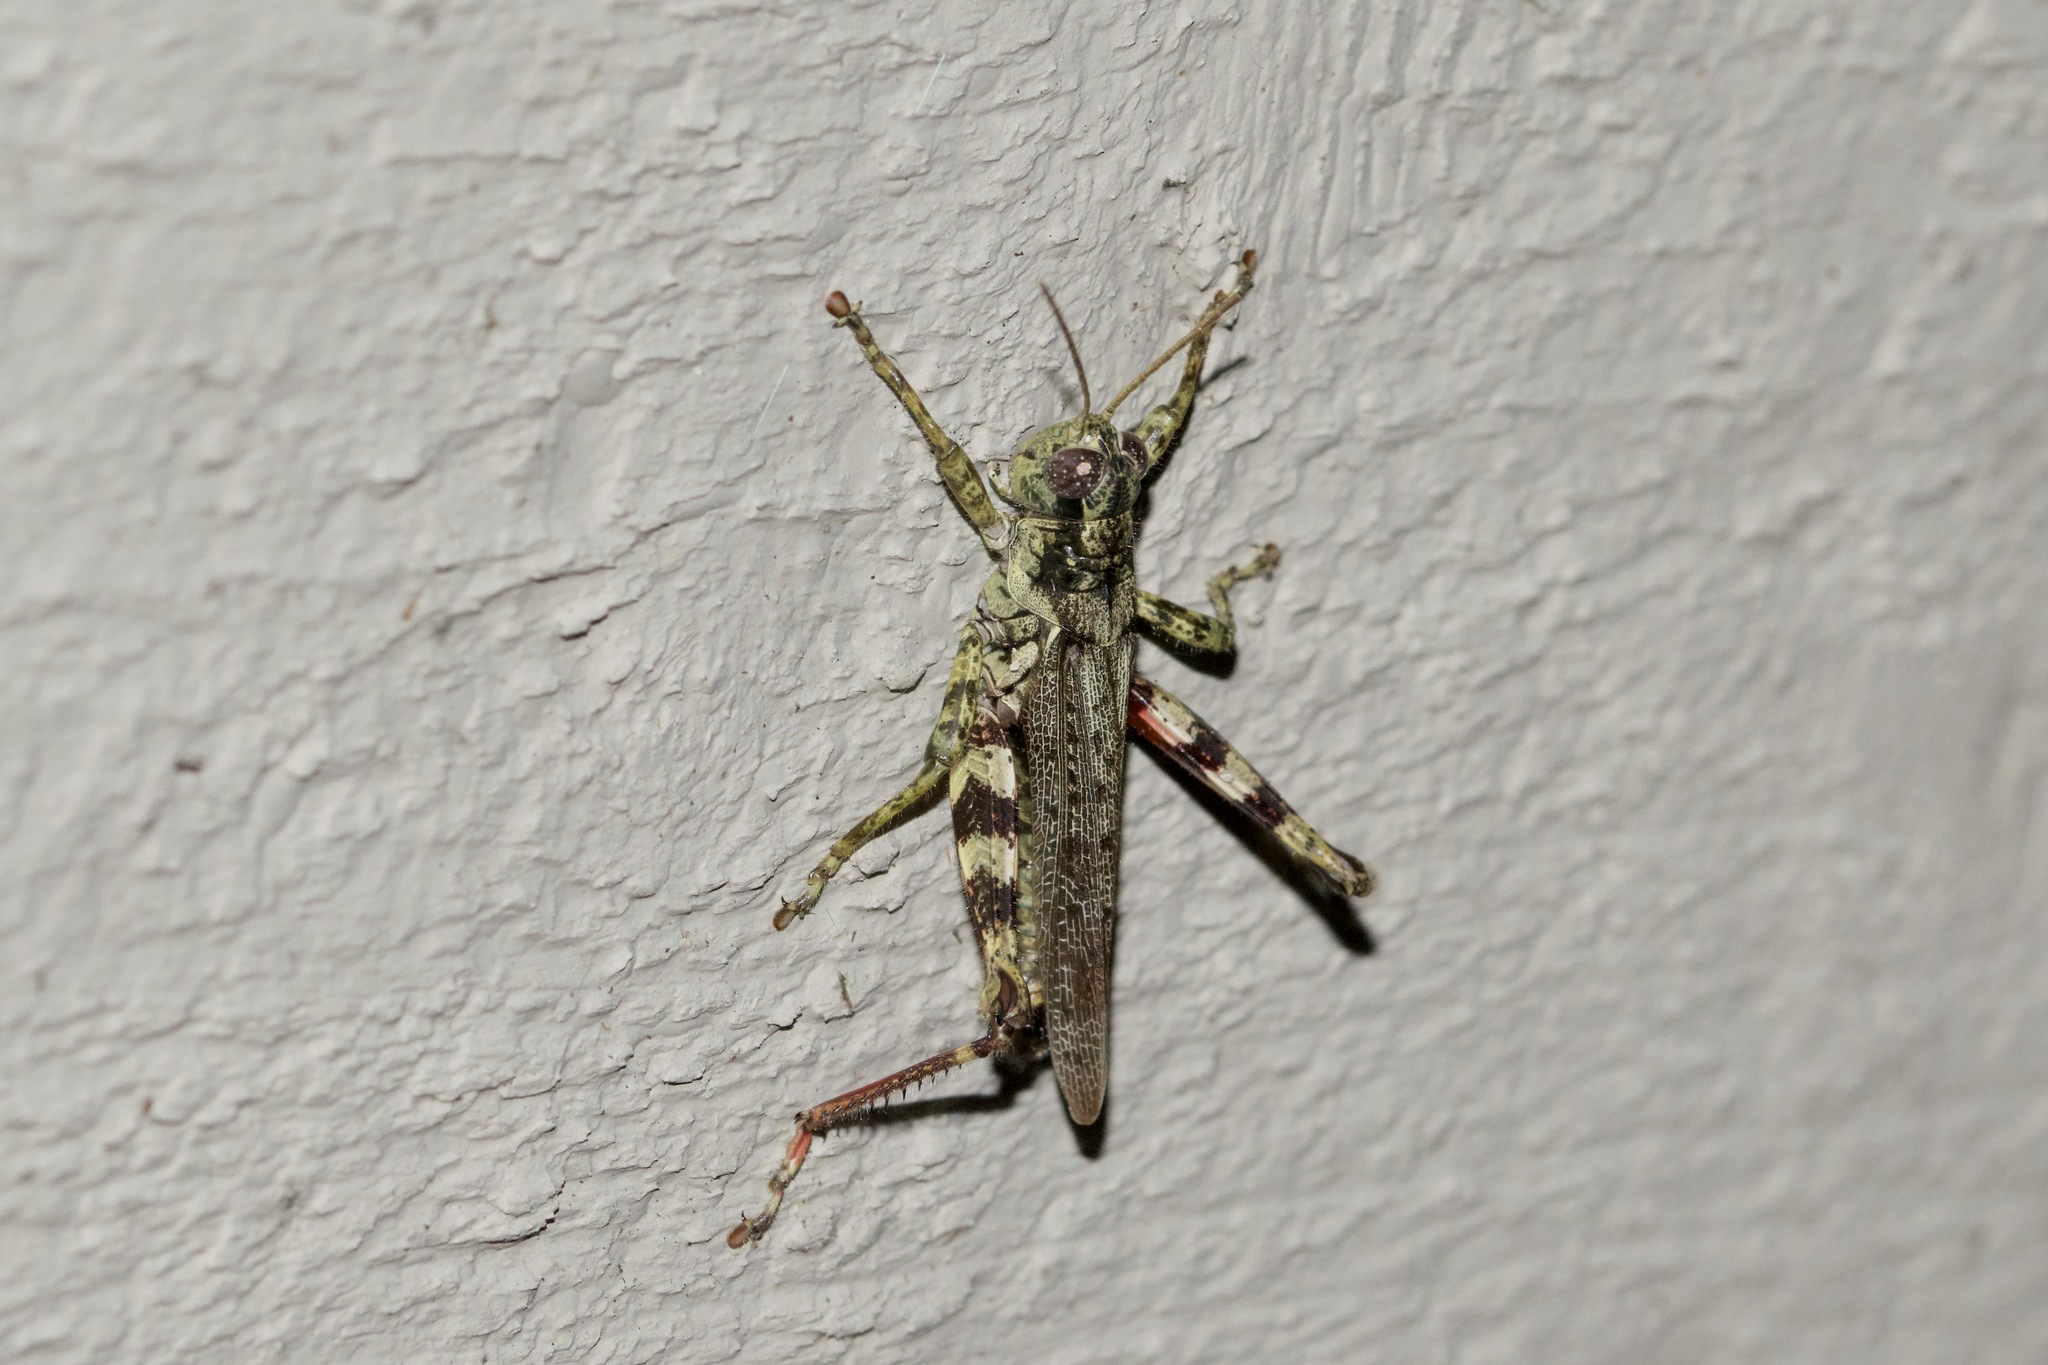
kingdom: Animalia
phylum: Arthropoda
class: Insecta
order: Orthoptera
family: Acrididae
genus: Melanoplus
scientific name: Melanoplus punctulatus
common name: Pine-tree spur-throat grasshopper
